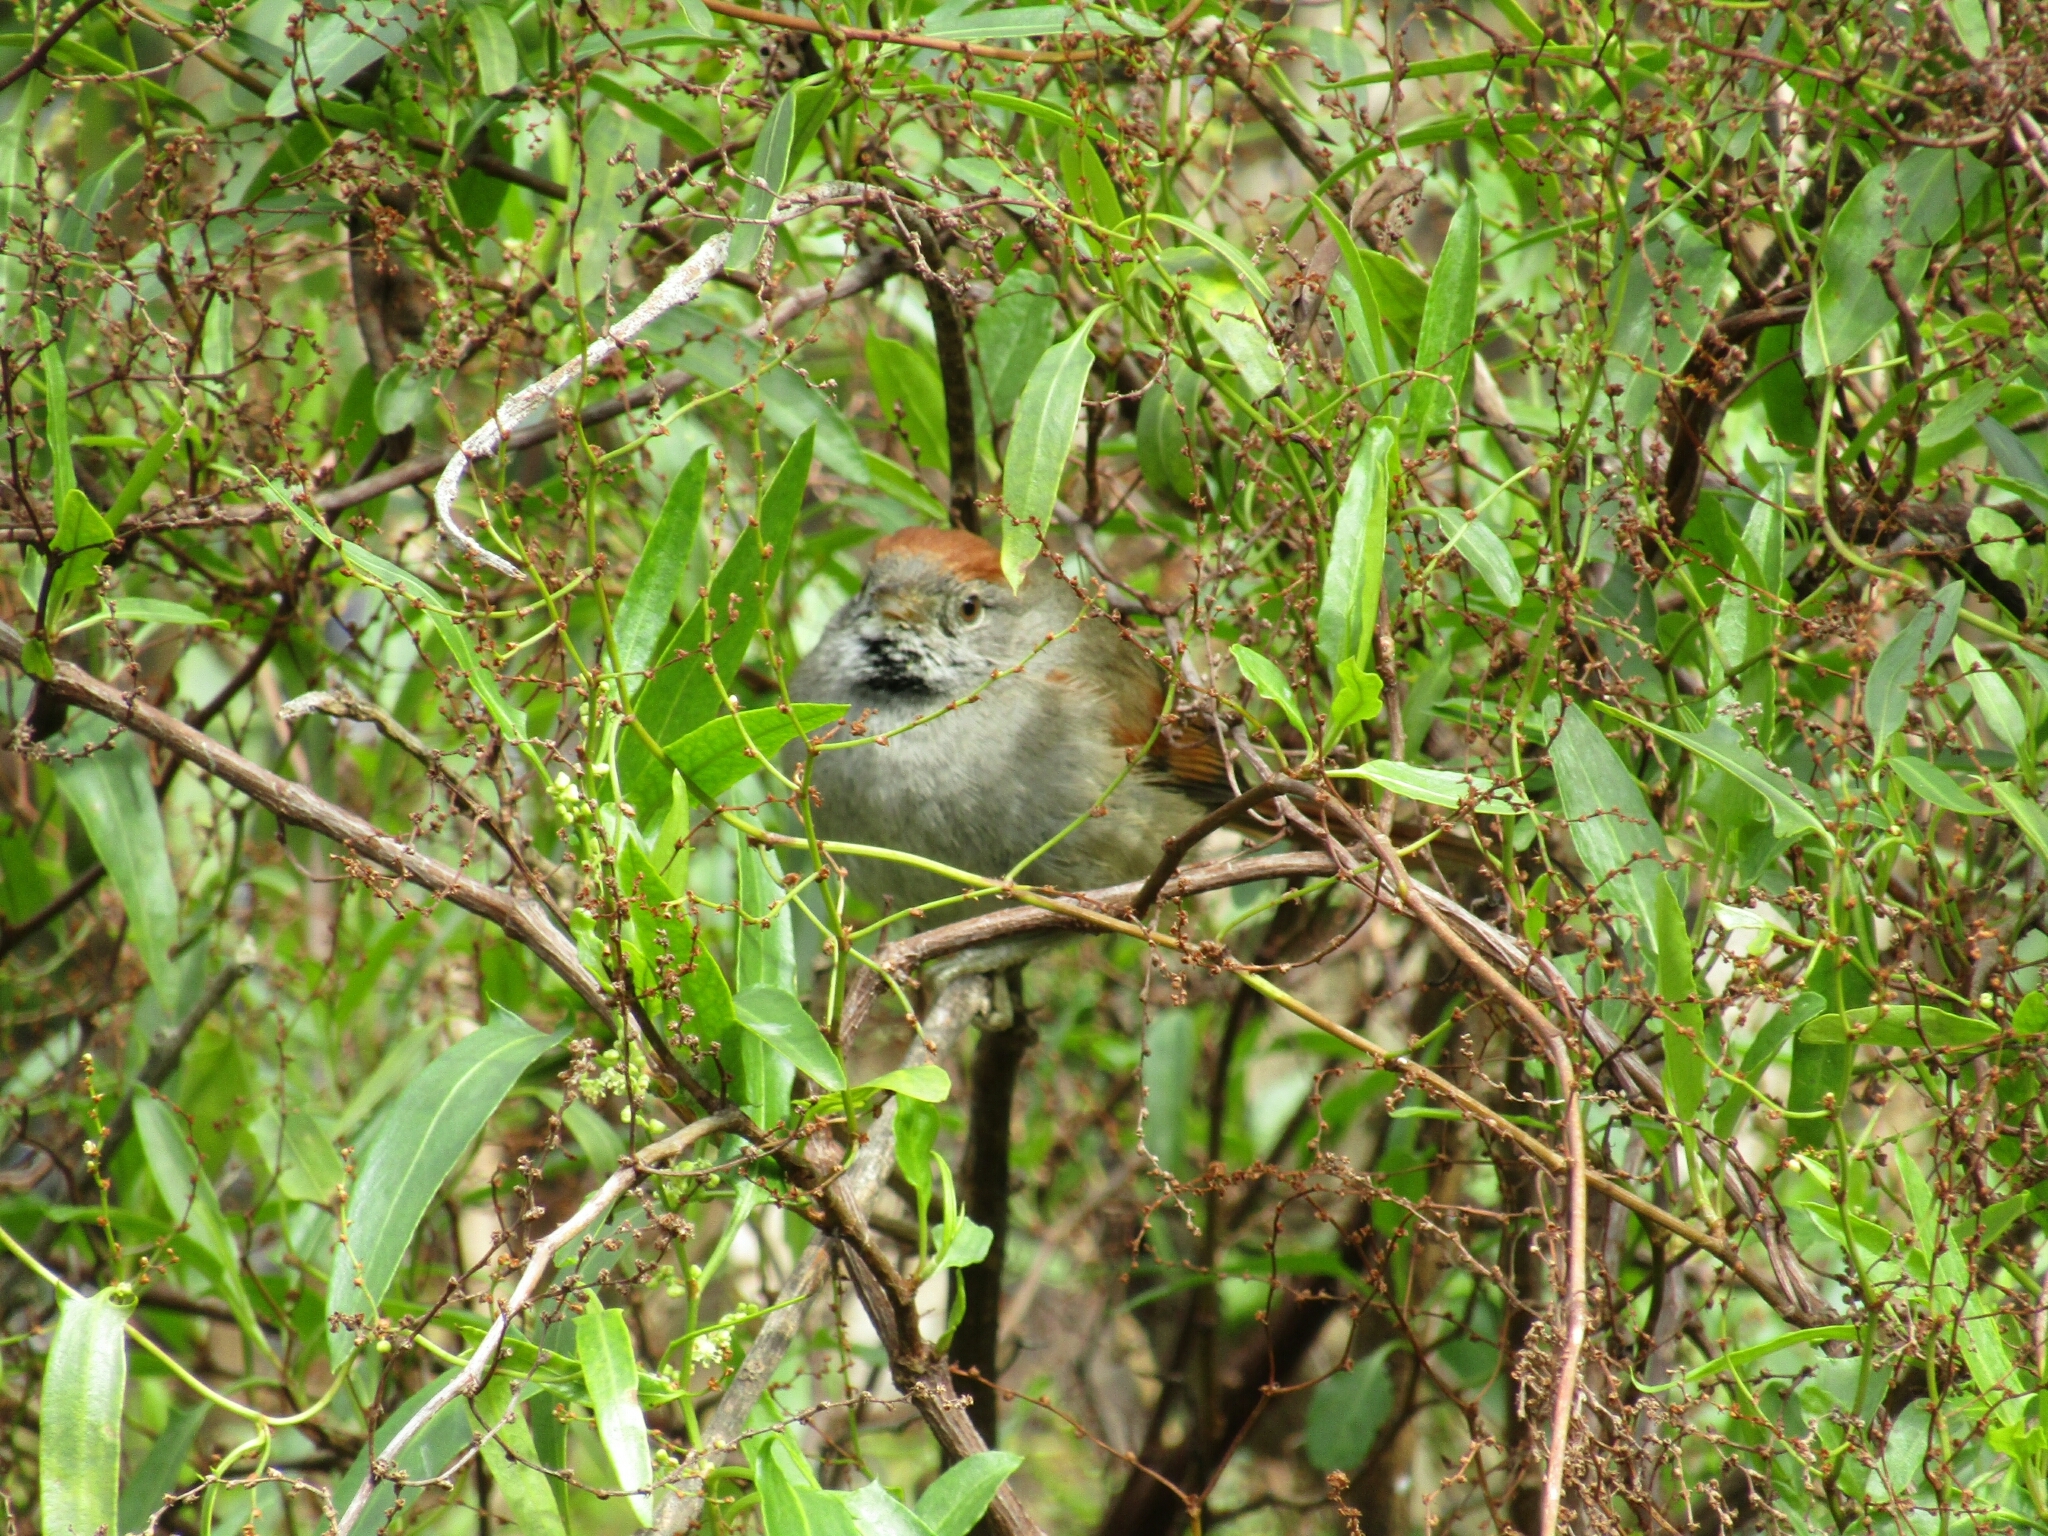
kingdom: Animalia
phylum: Chordata
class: Aves
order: Passeriformes
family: Furnariidae
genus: Synallaxis
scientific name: Synallaxis frontalis
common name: Sooty-fronted spinetail
